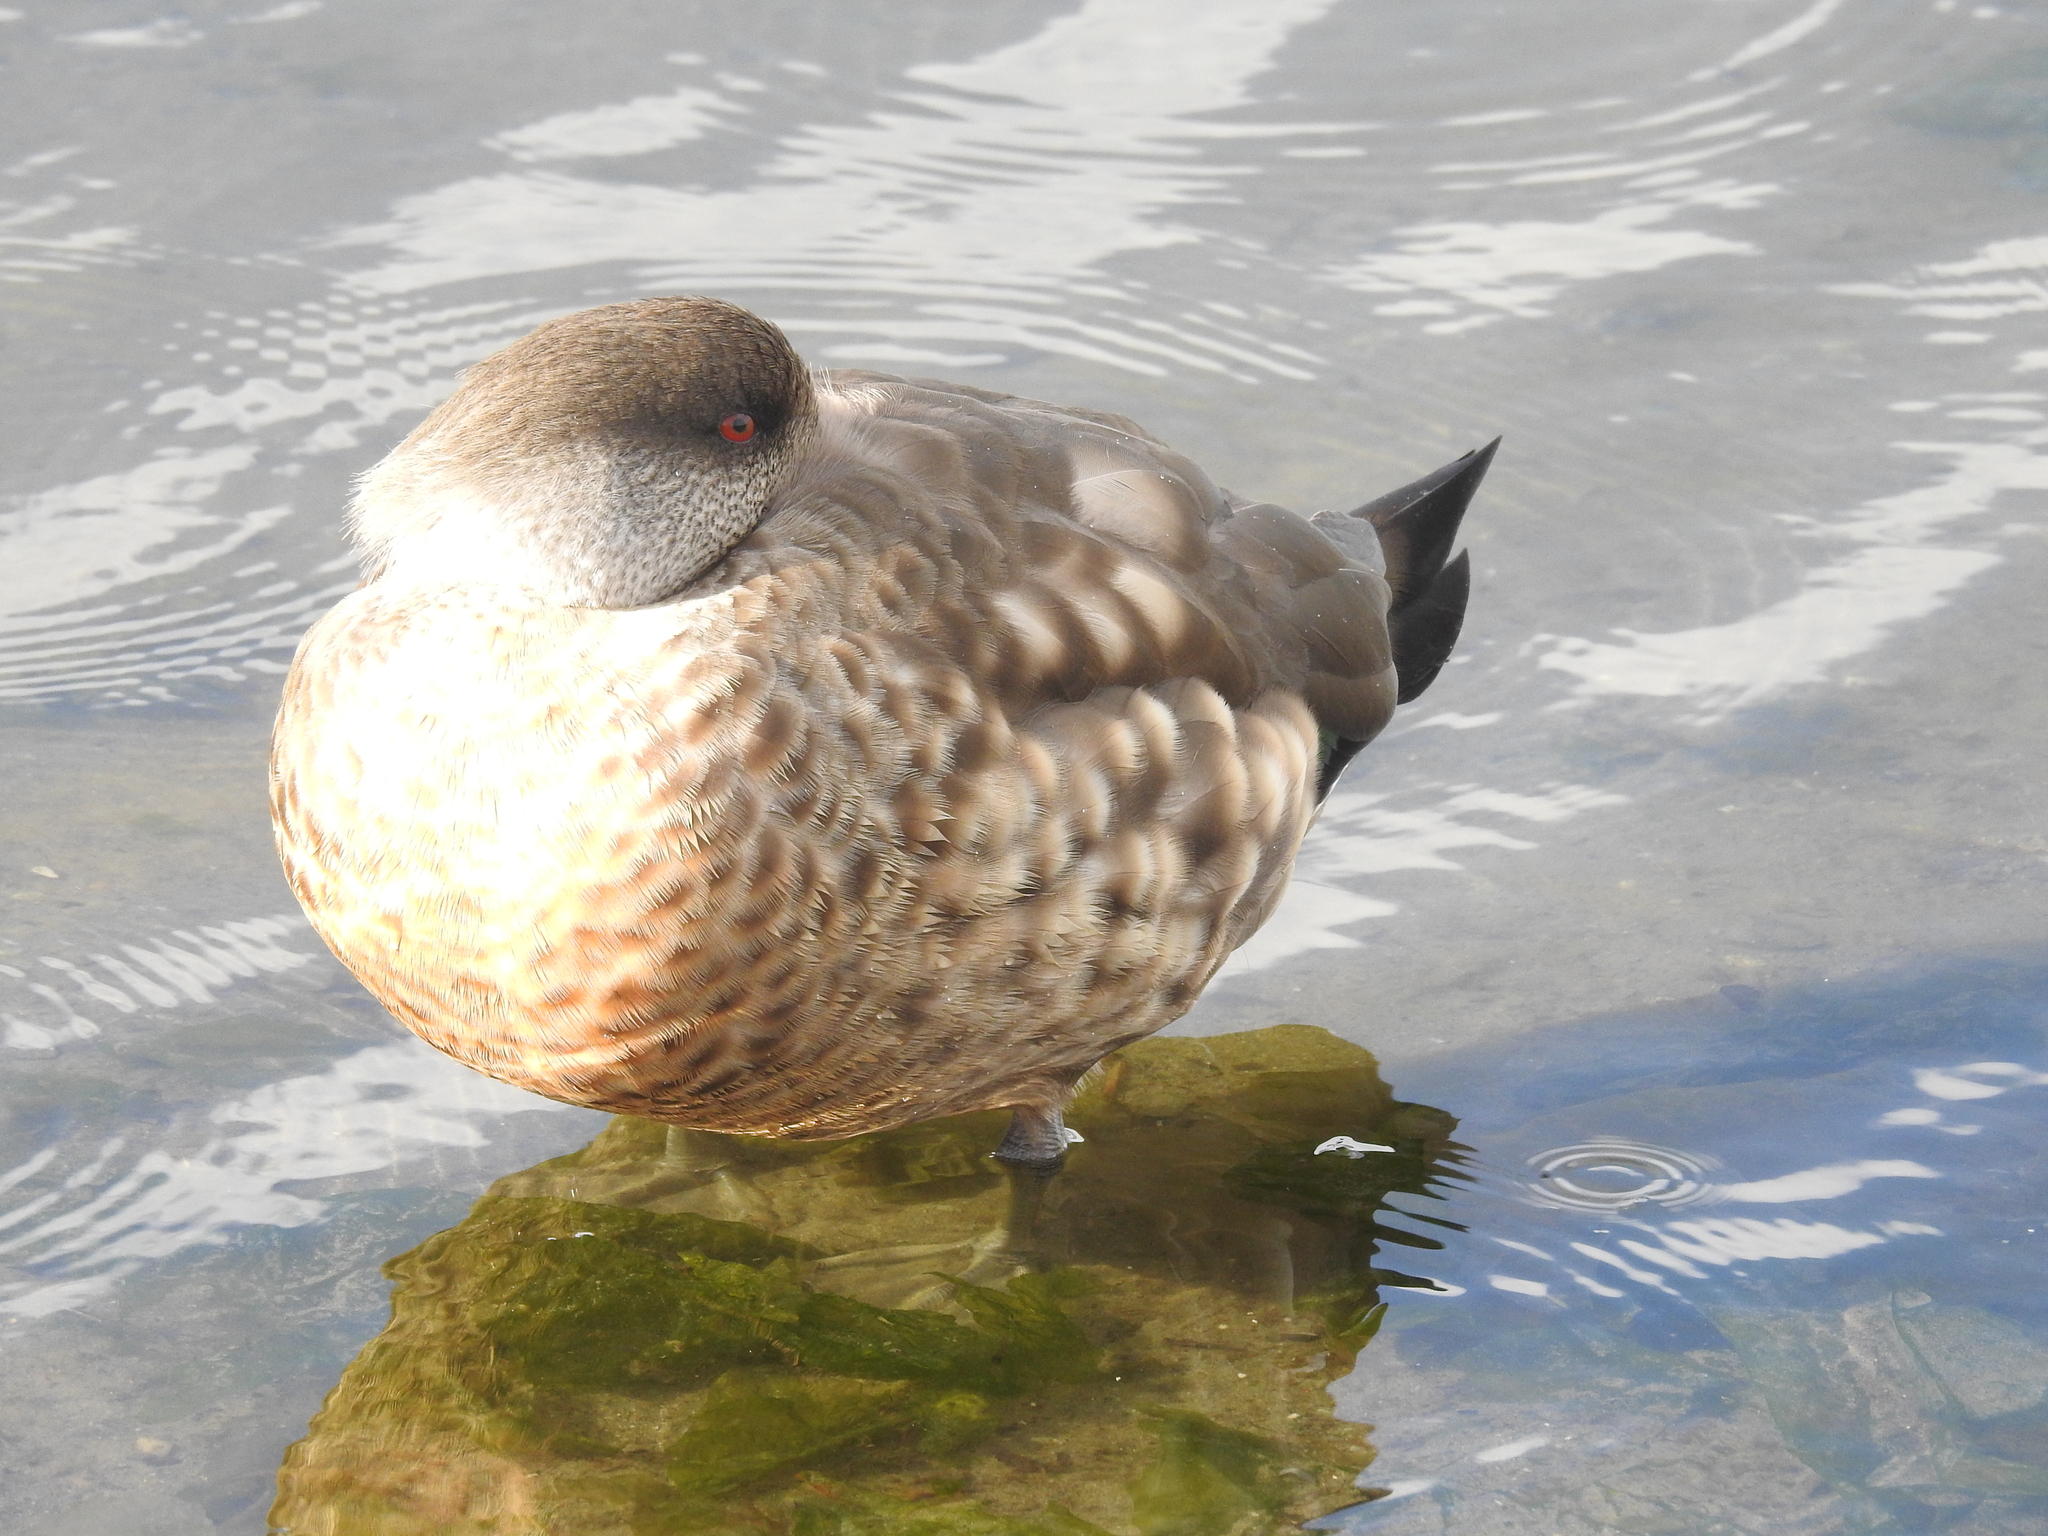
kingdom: Animalia
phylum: Chordata
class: Aves
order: Anseriformes
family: Anatidae
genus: Lophonetta
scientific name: Lophonetta specularioides
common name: Crested duck
